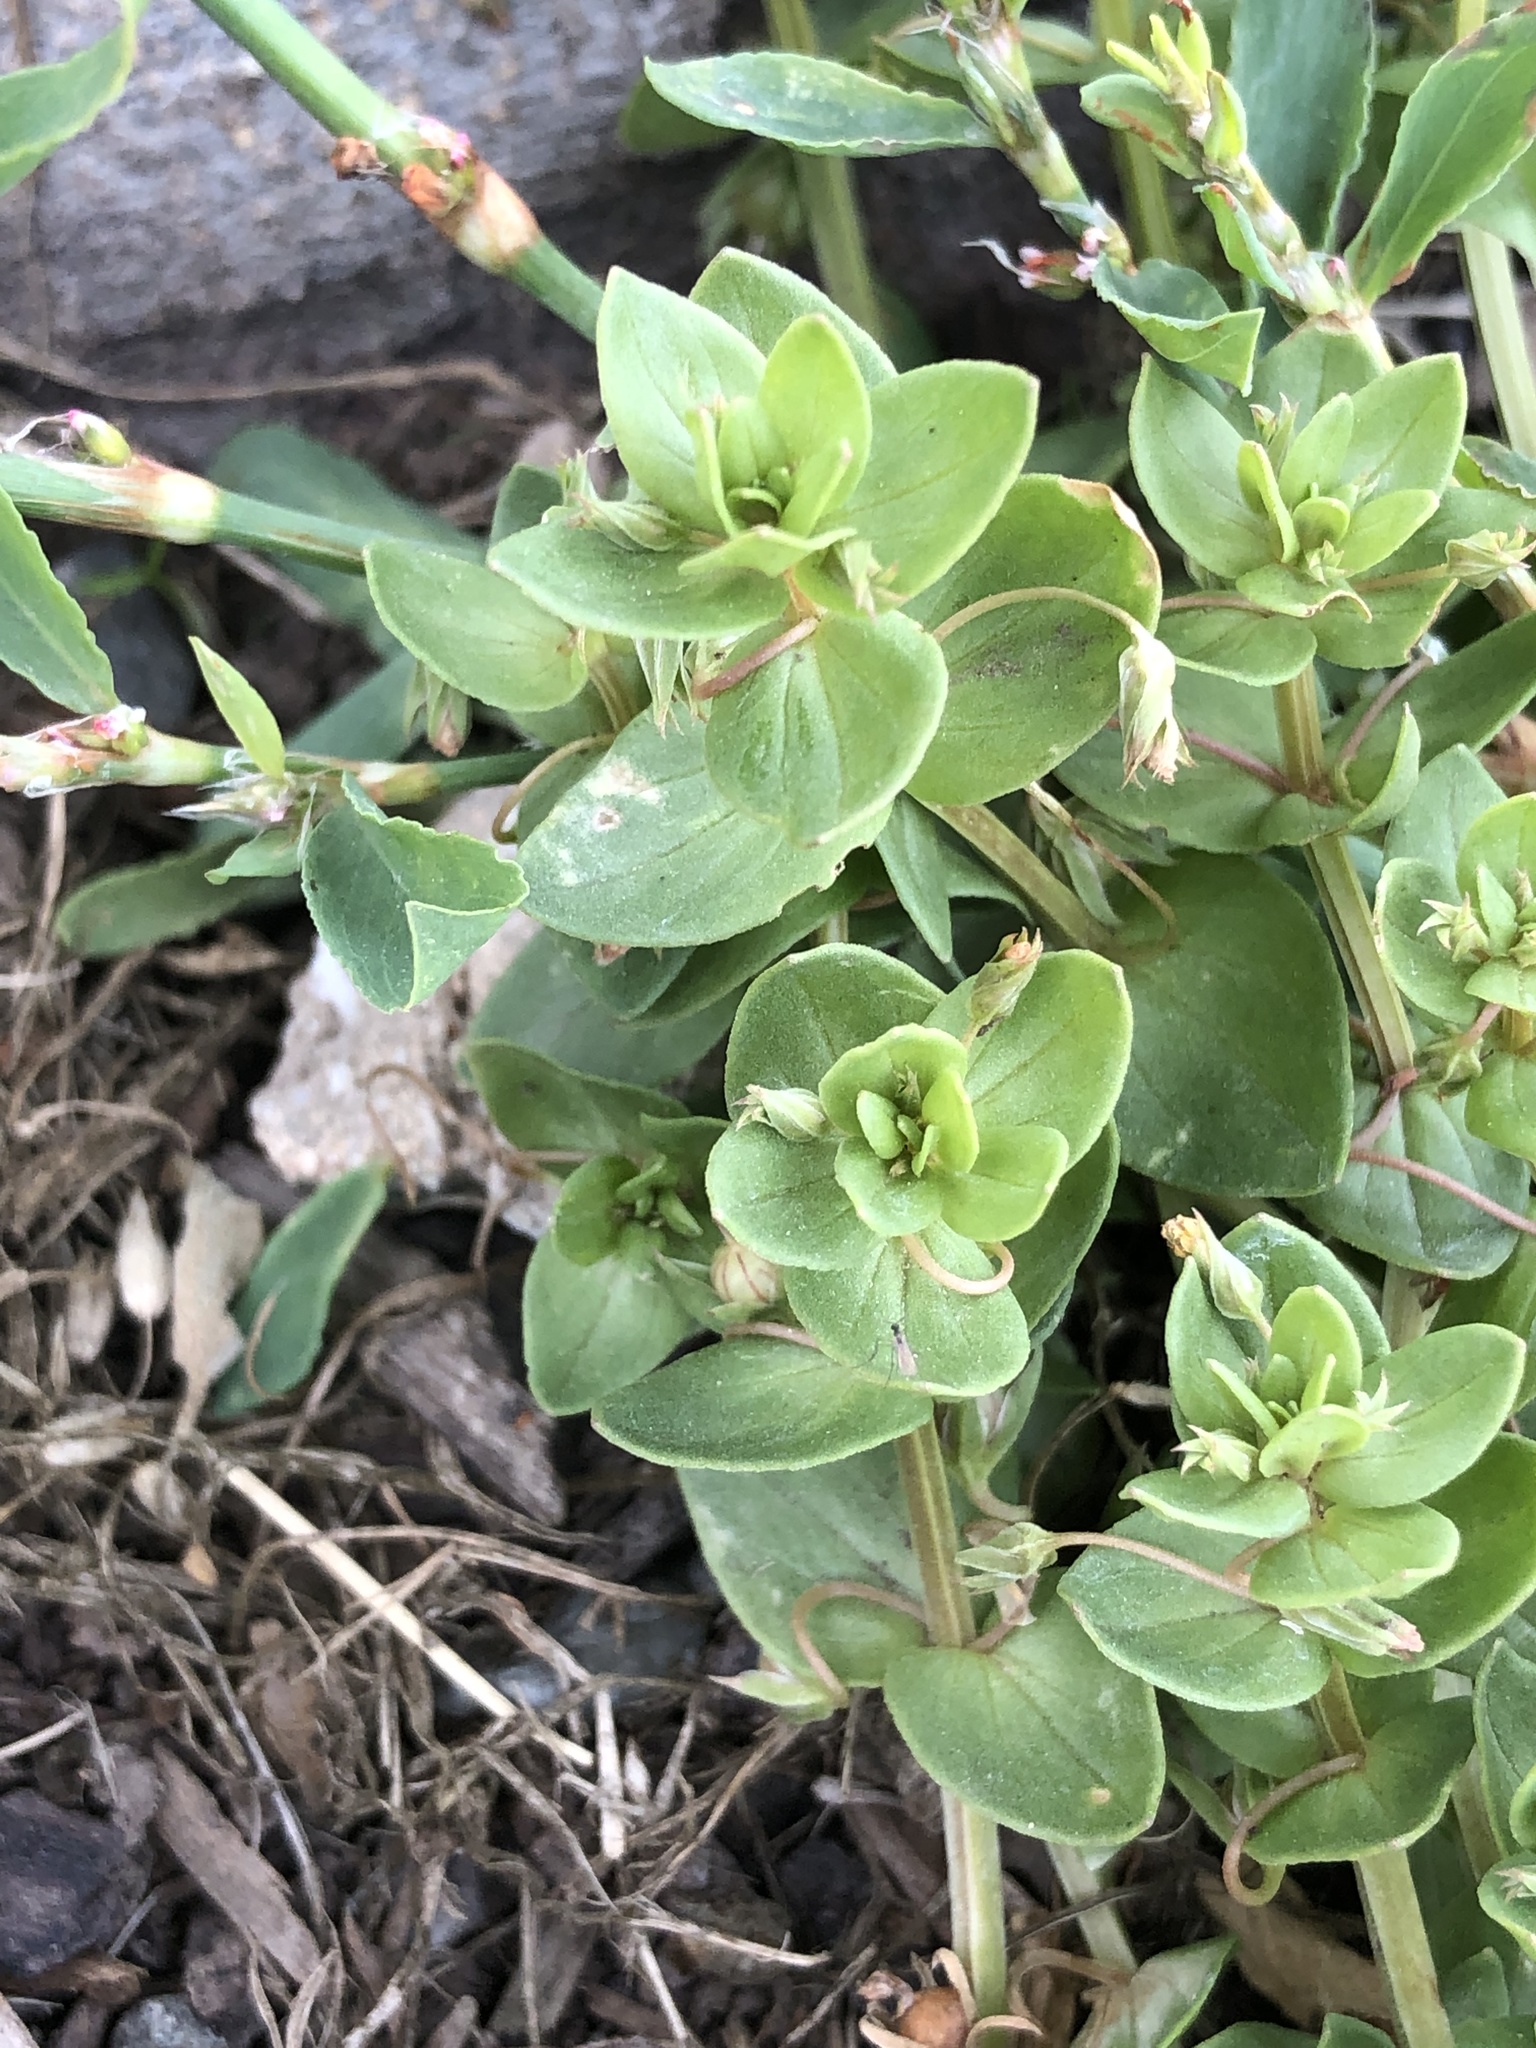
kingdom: Plantae
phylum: Tracheophyta
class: Magnoliopsida
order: Ericales
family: Primulaceae
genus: Lysimachia
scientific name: Lysimachia arvensis
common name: Scarlet pimpernel
